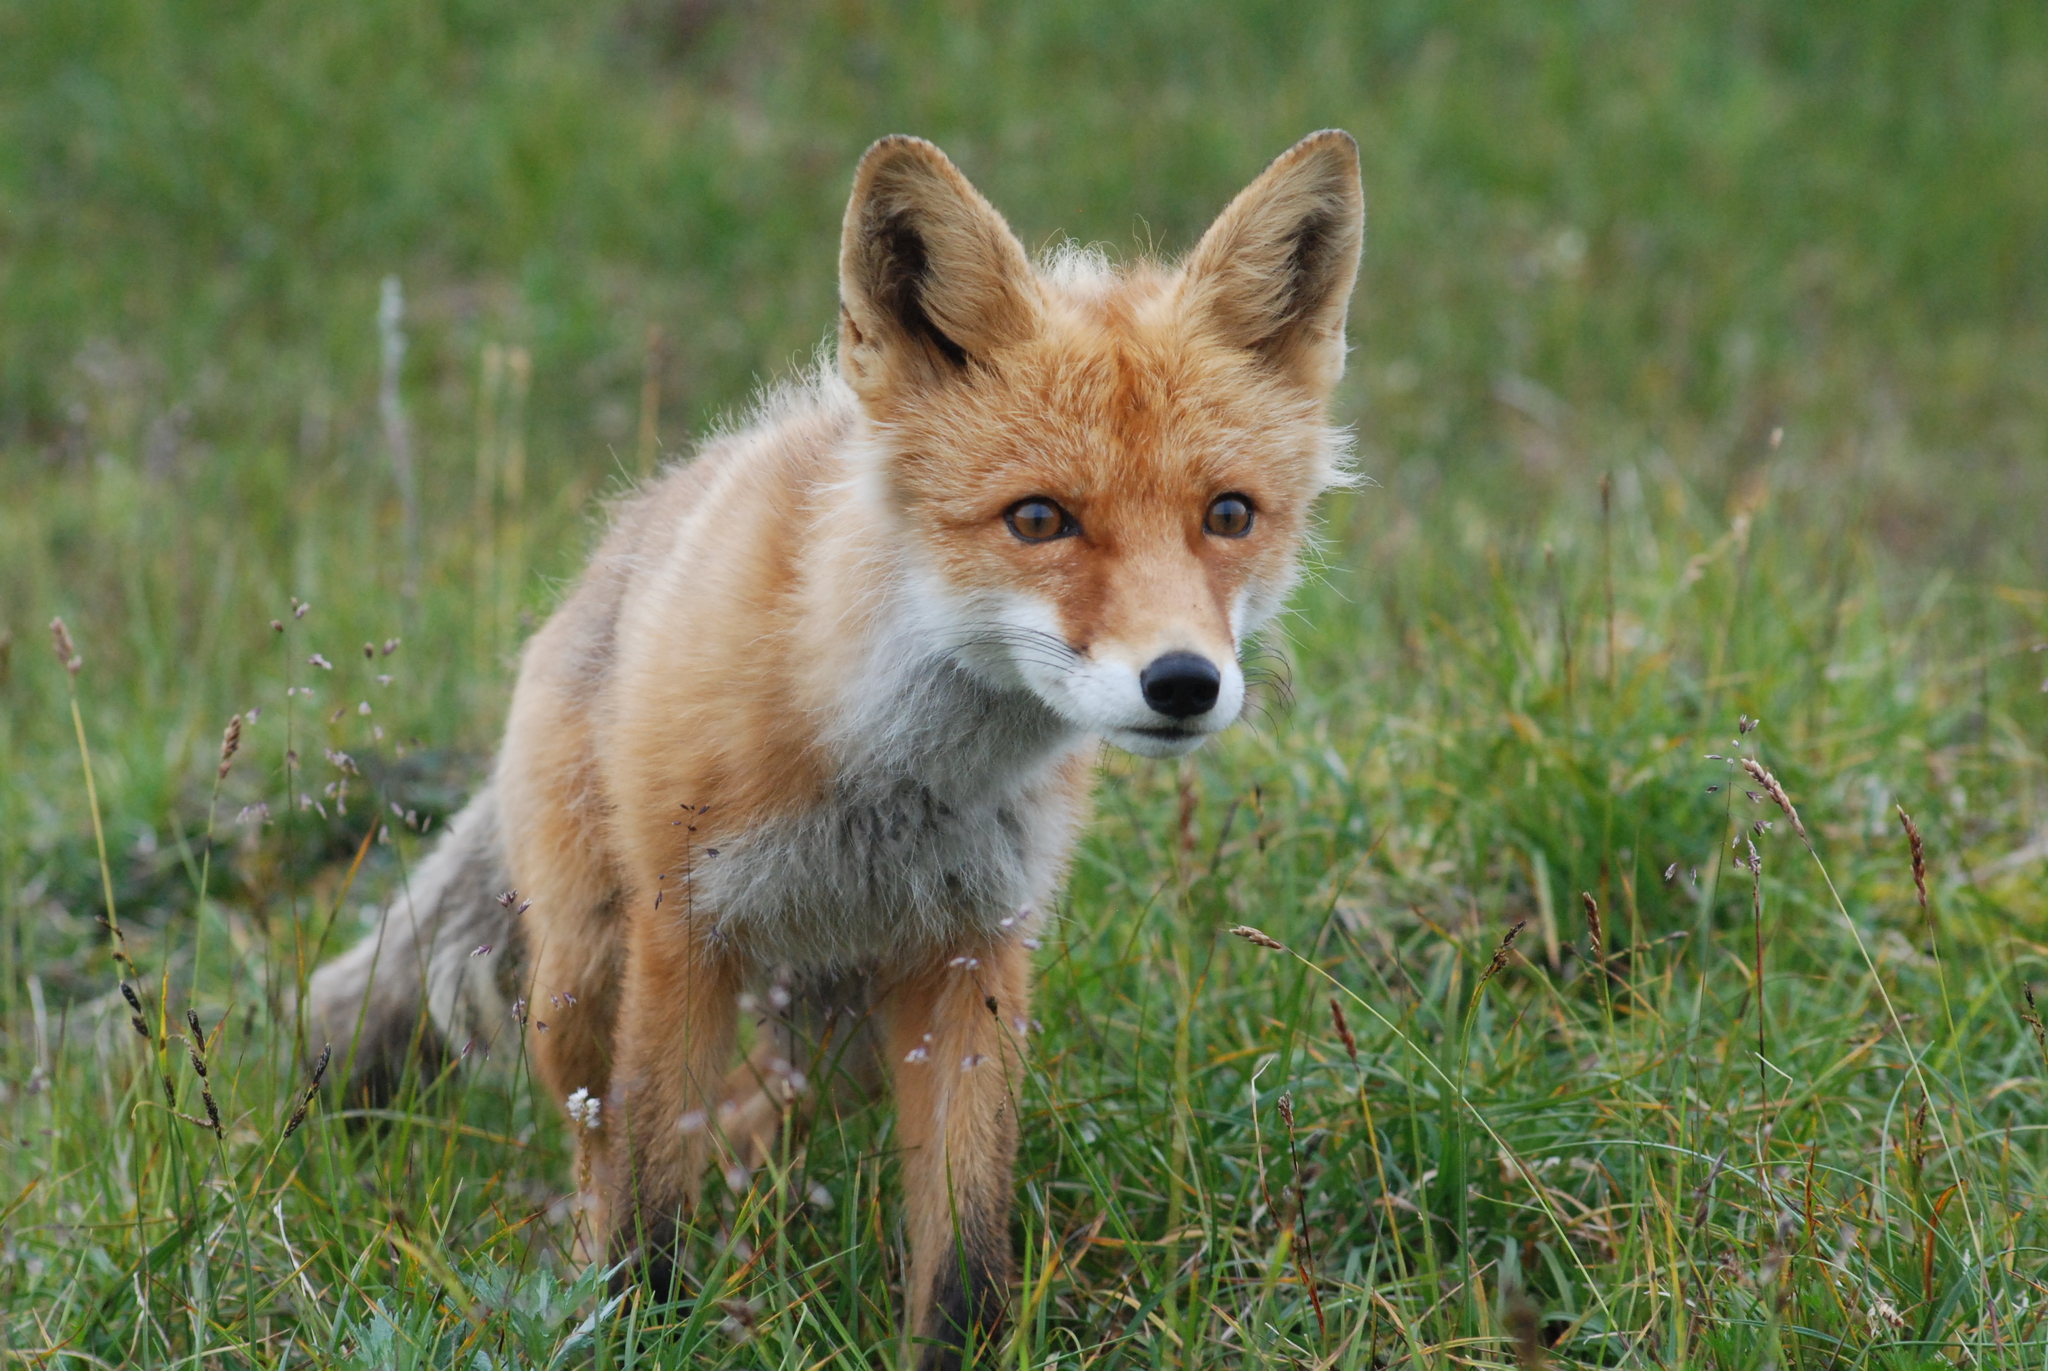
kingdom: Animalia
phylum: Chordata
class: Mammalia
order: Carnivora
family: Canidae
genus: Vulpes
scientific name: Vulpes vulpes
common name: Red fox
